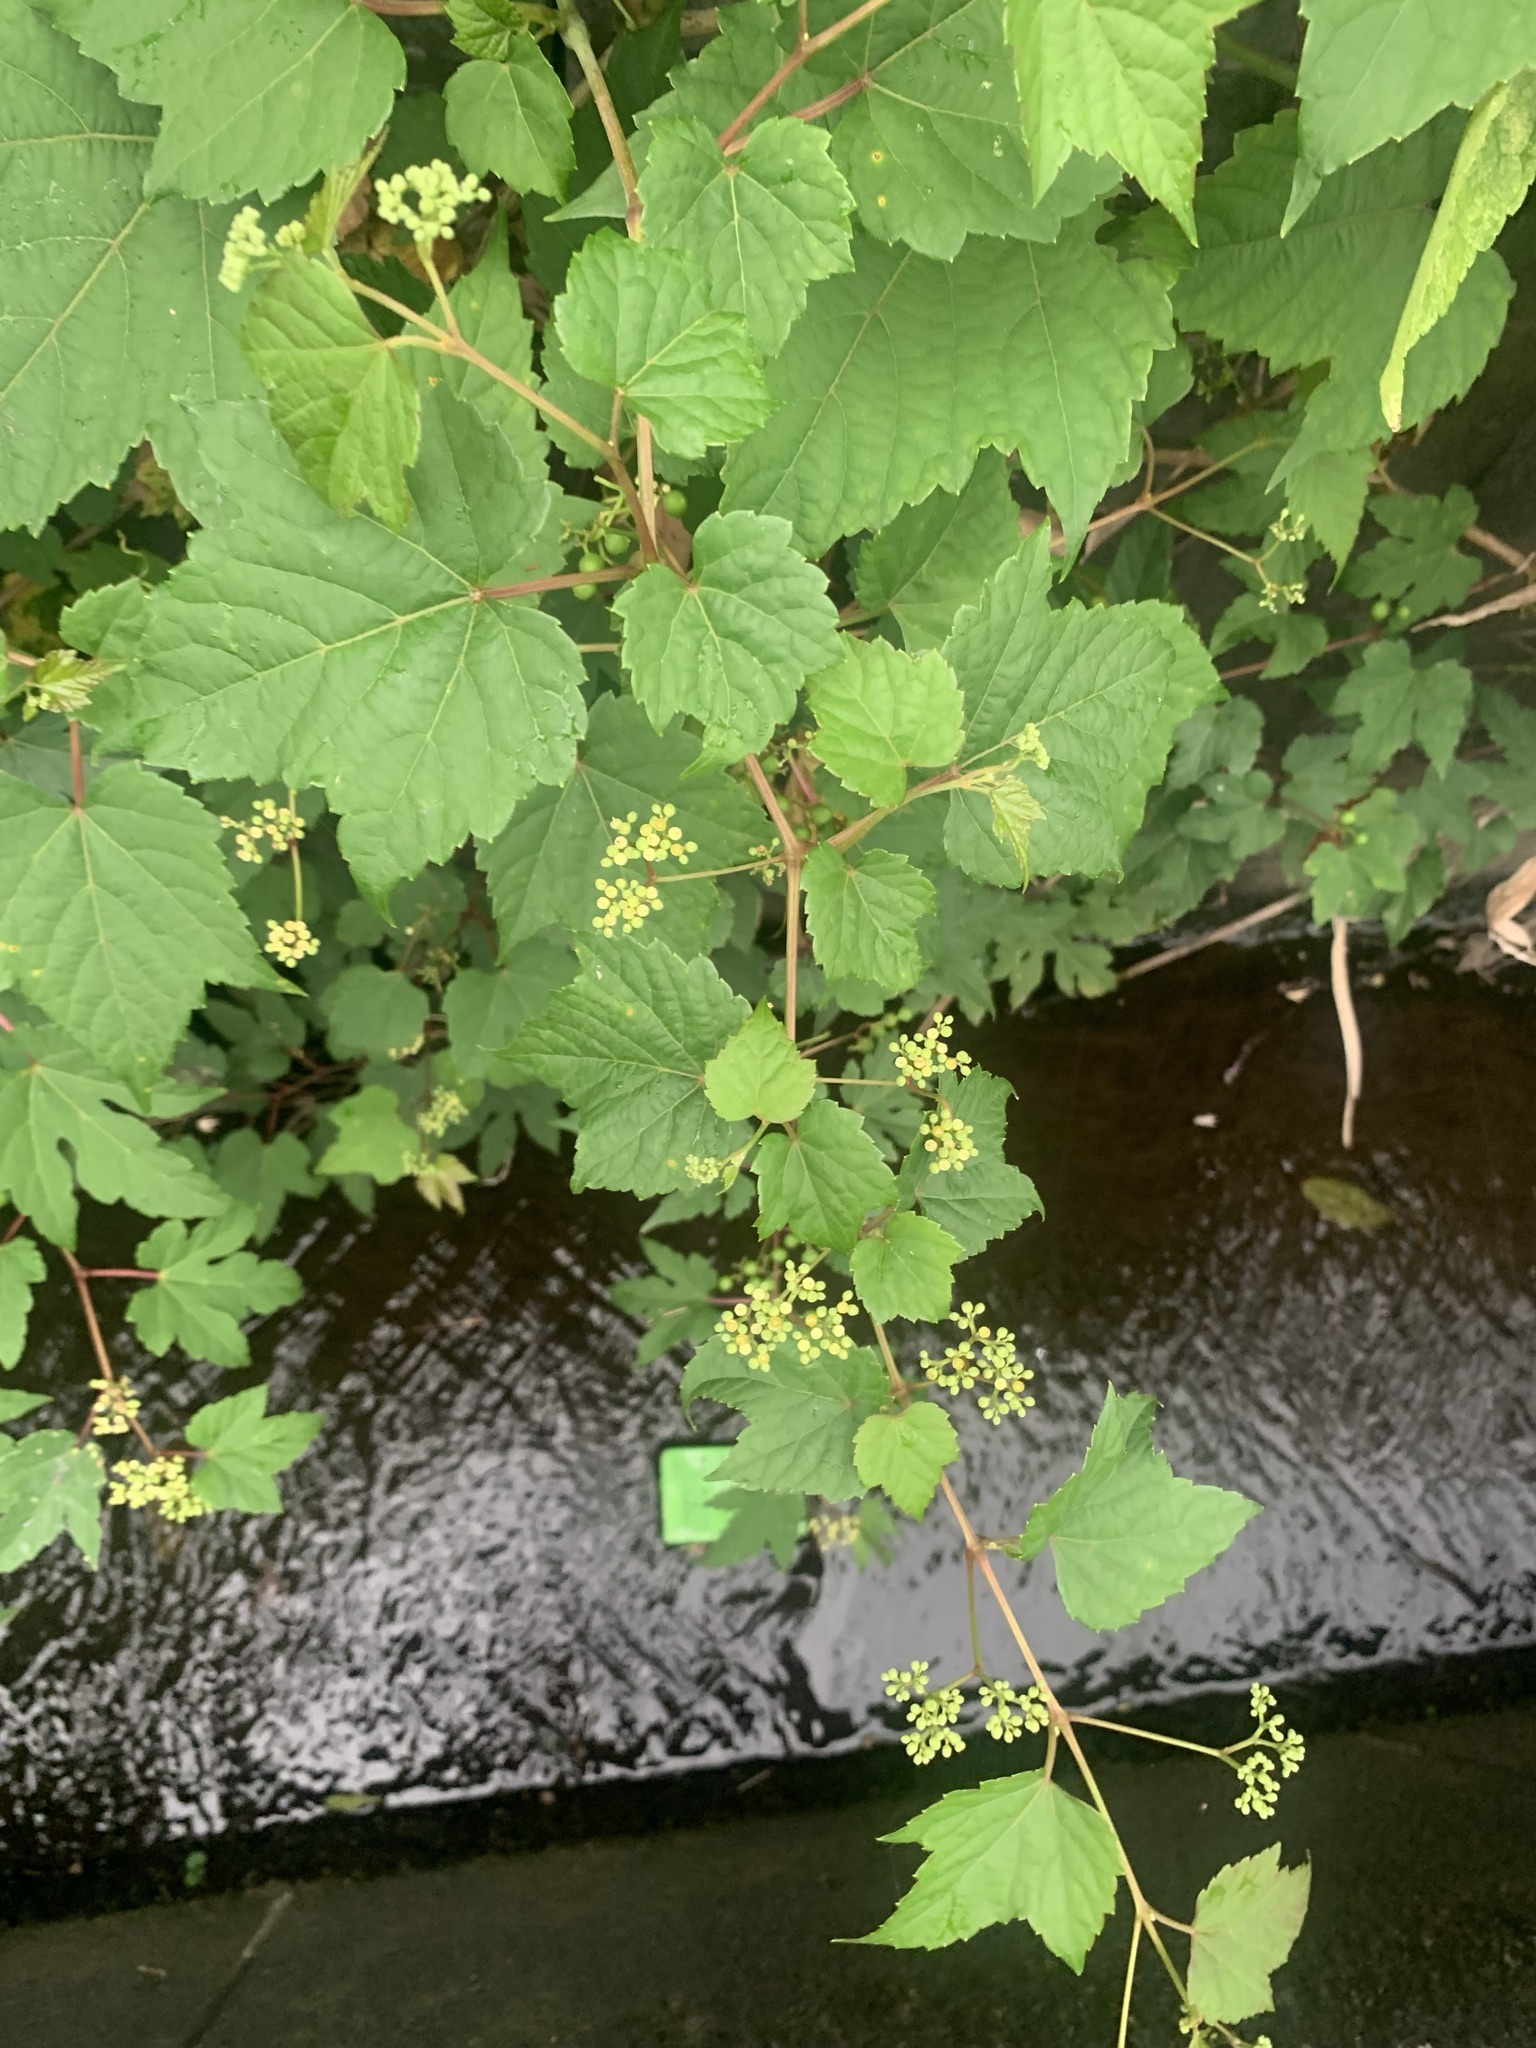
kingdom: Plantae
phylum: Tracheophyta
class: Magnoliopsida
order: Vitales
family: Vitaceae
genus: Ampelopsis
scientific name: Ampelopsis glandulosa
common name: Amur peppervine
